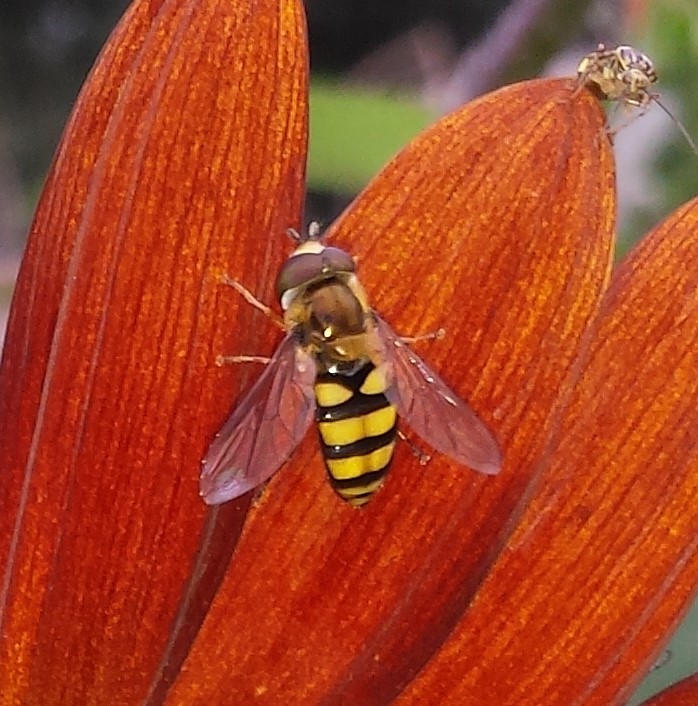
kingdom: Animalia
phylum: Arthropoda
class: Insecta
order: Diptera
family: Syrphidae
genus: Eupeodes
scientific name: Eupeodes
